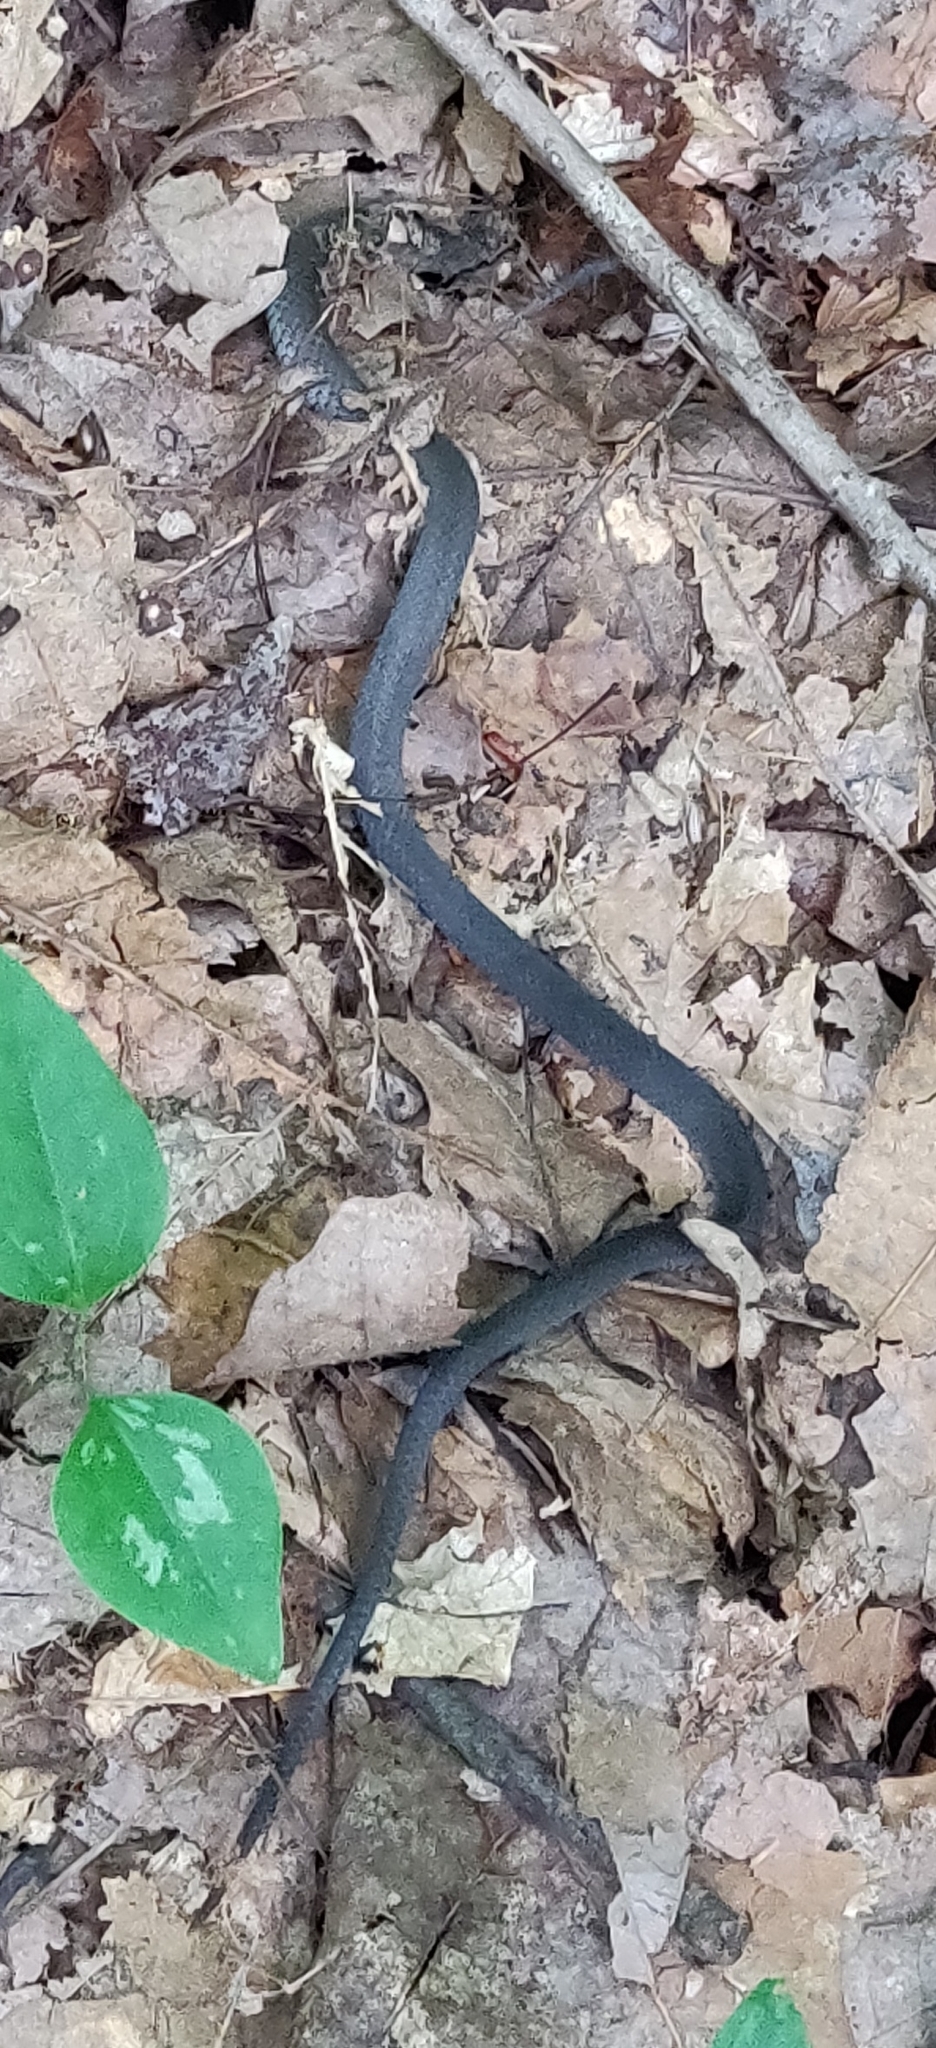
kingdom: Animalia
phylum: Chordata
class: Squamata
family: Colubridae
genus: Coluber
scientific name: Coluber constrictor
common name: Eastern racer
